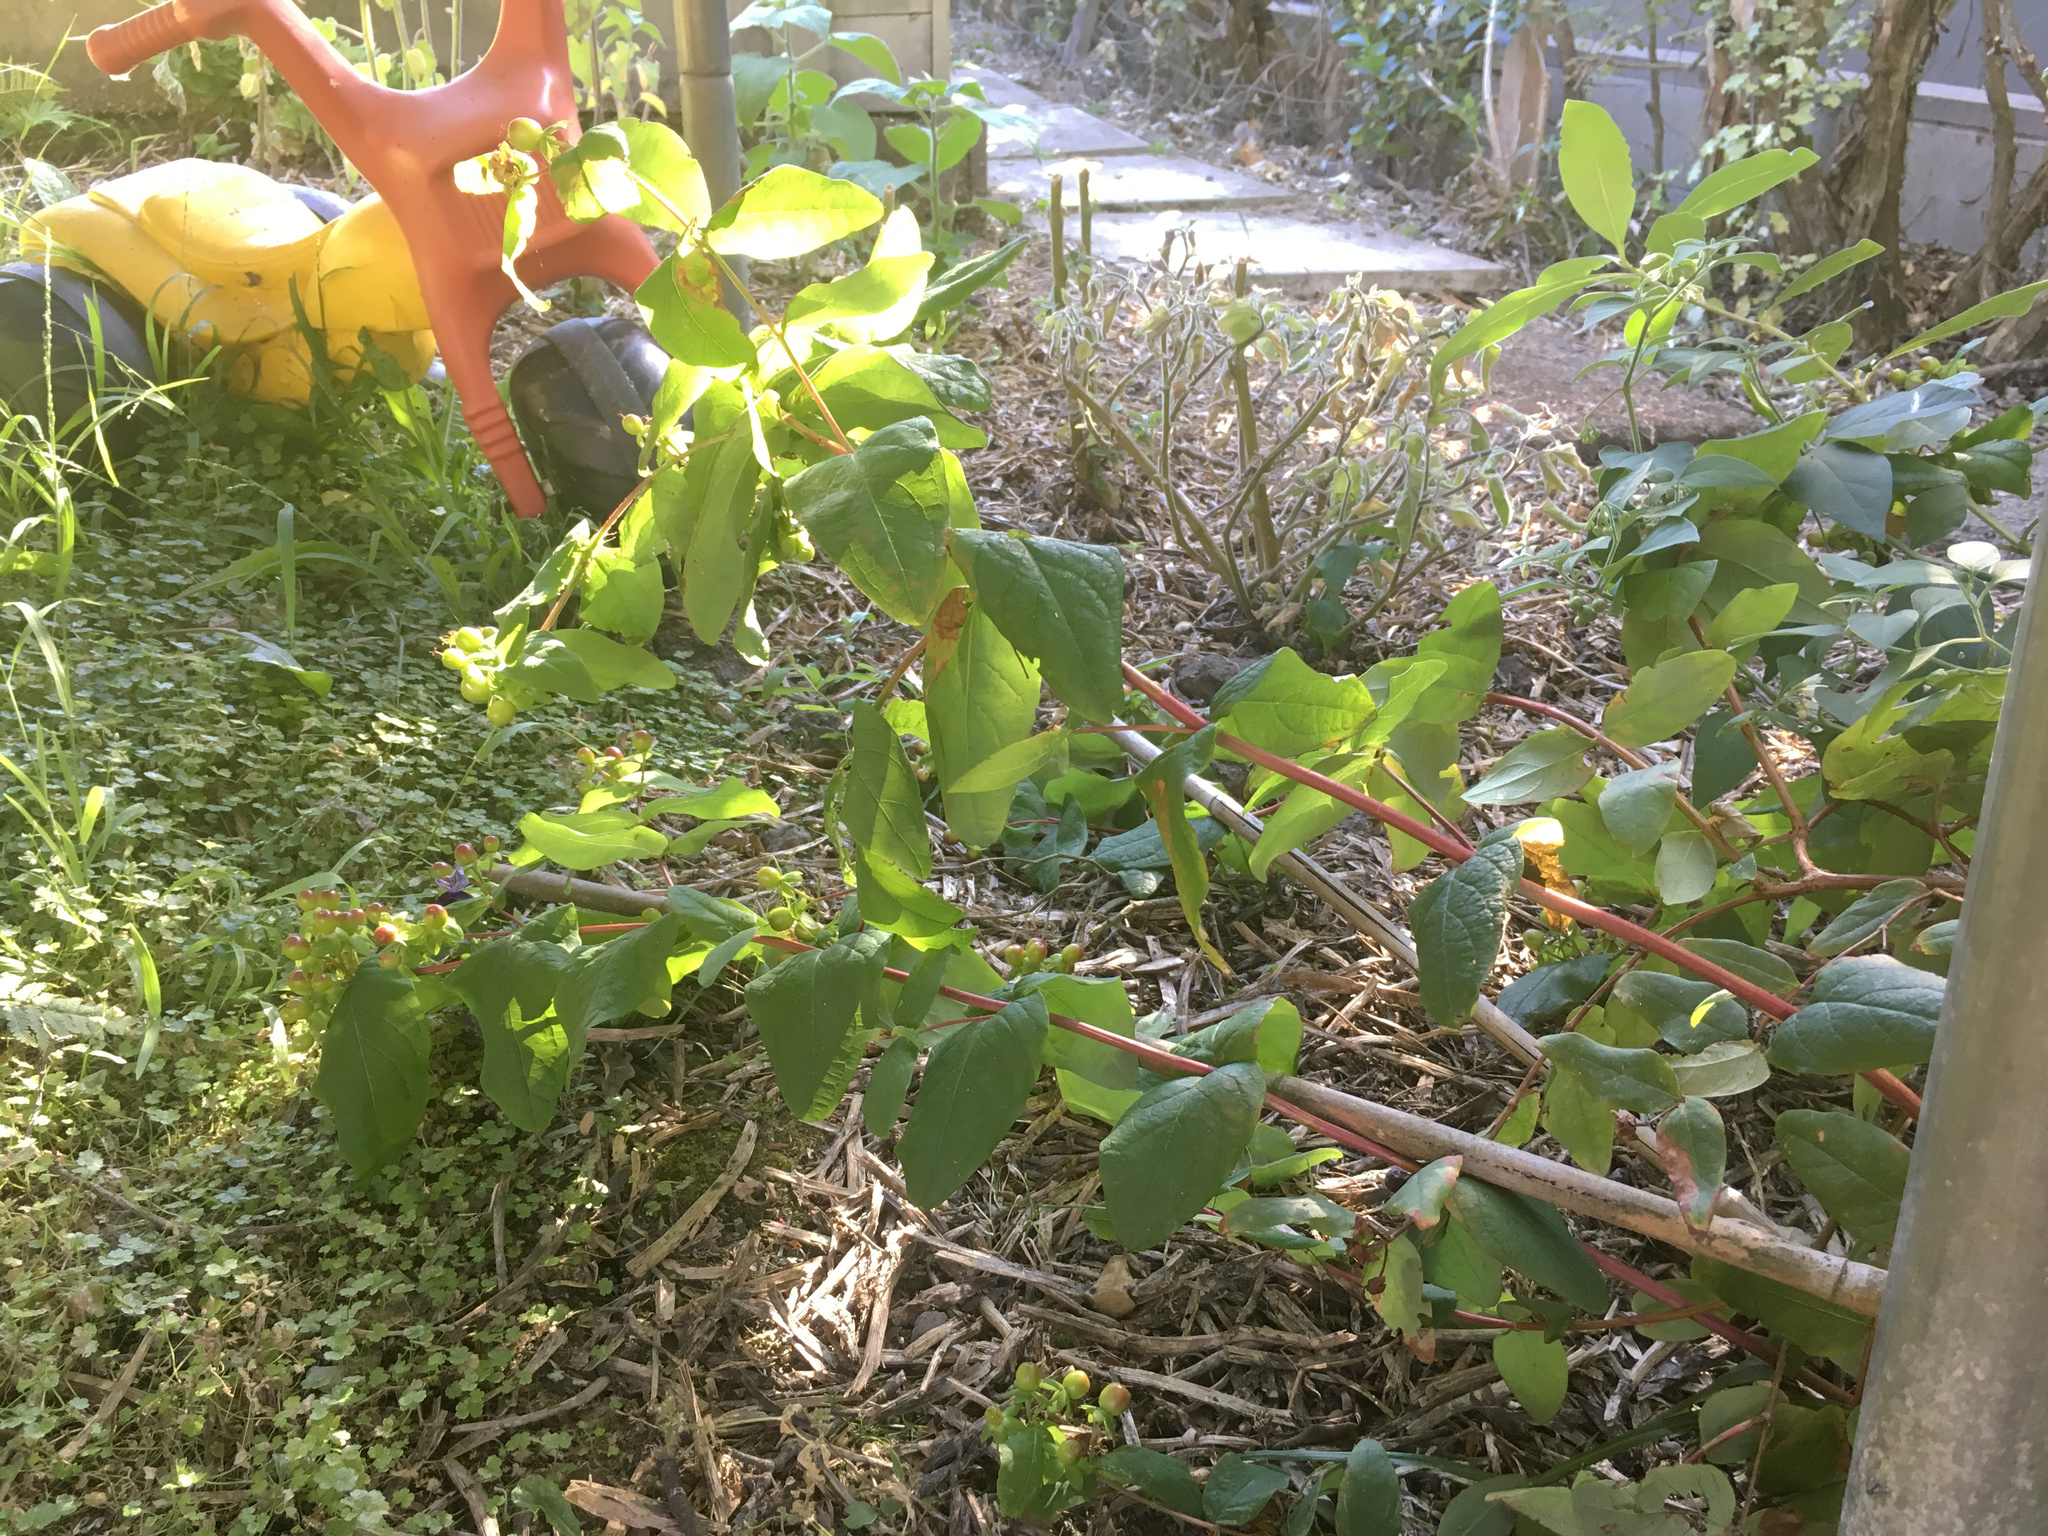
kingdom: Plantae
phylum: Tracheophyta
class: Magnoliopsida
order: Malpighiales
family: Hypericaceae
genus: Hypericum
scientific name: Hypericum androsaemum
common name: Sweet-amber
